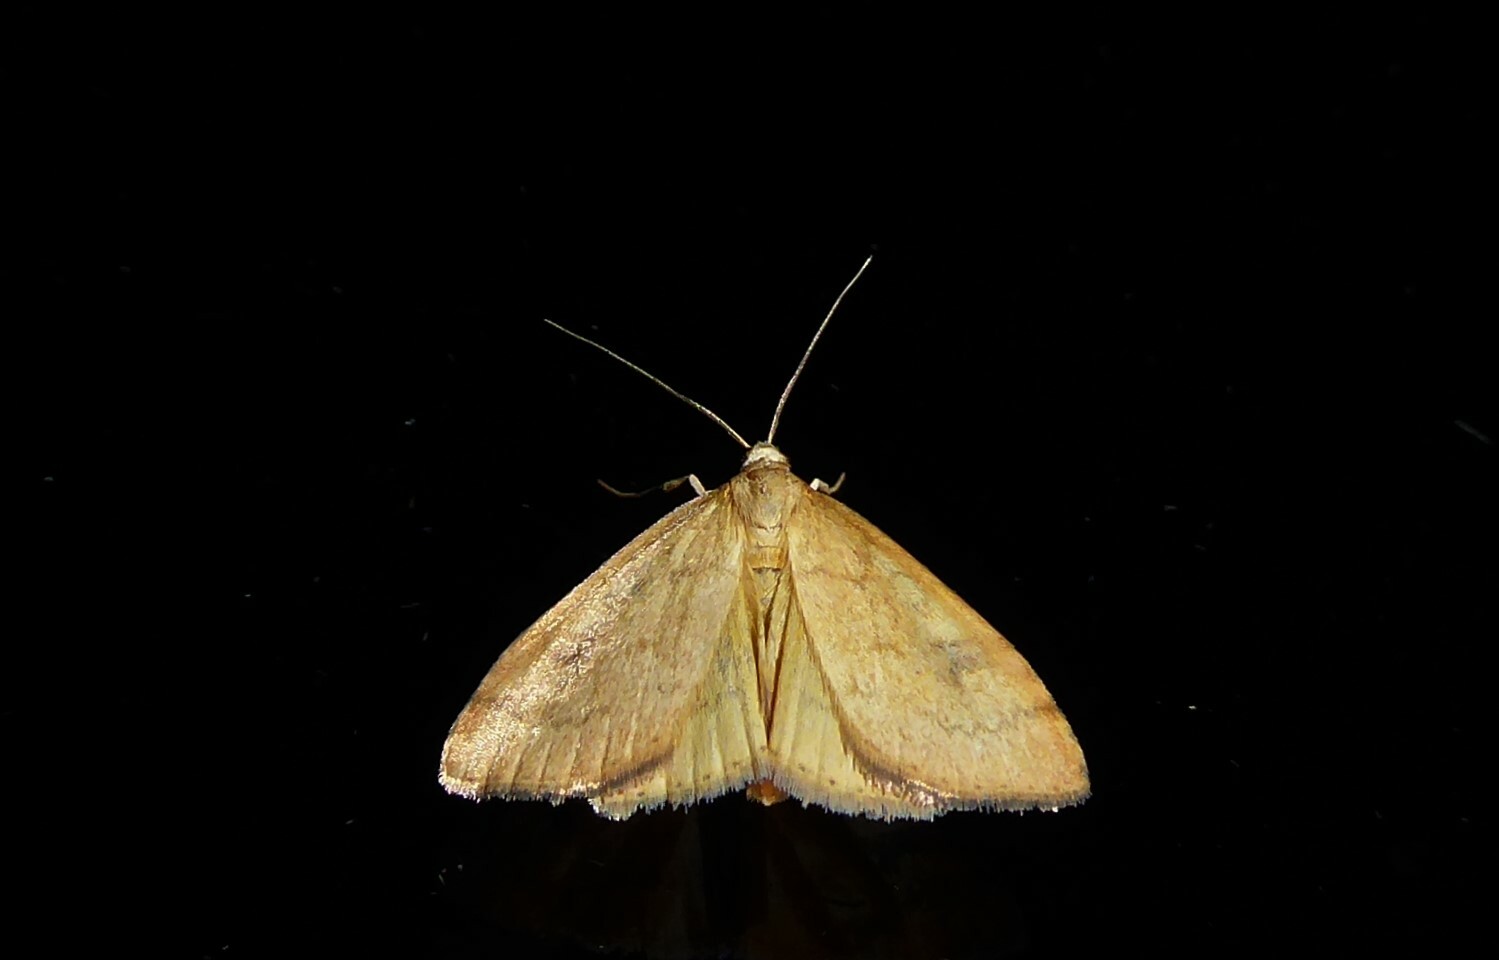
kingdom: Animalia
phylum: Arthropoda
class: Insecta
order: Lepidoptera
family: Crambidae
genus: Udea
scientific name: Udea Mnesictena flavidalis
